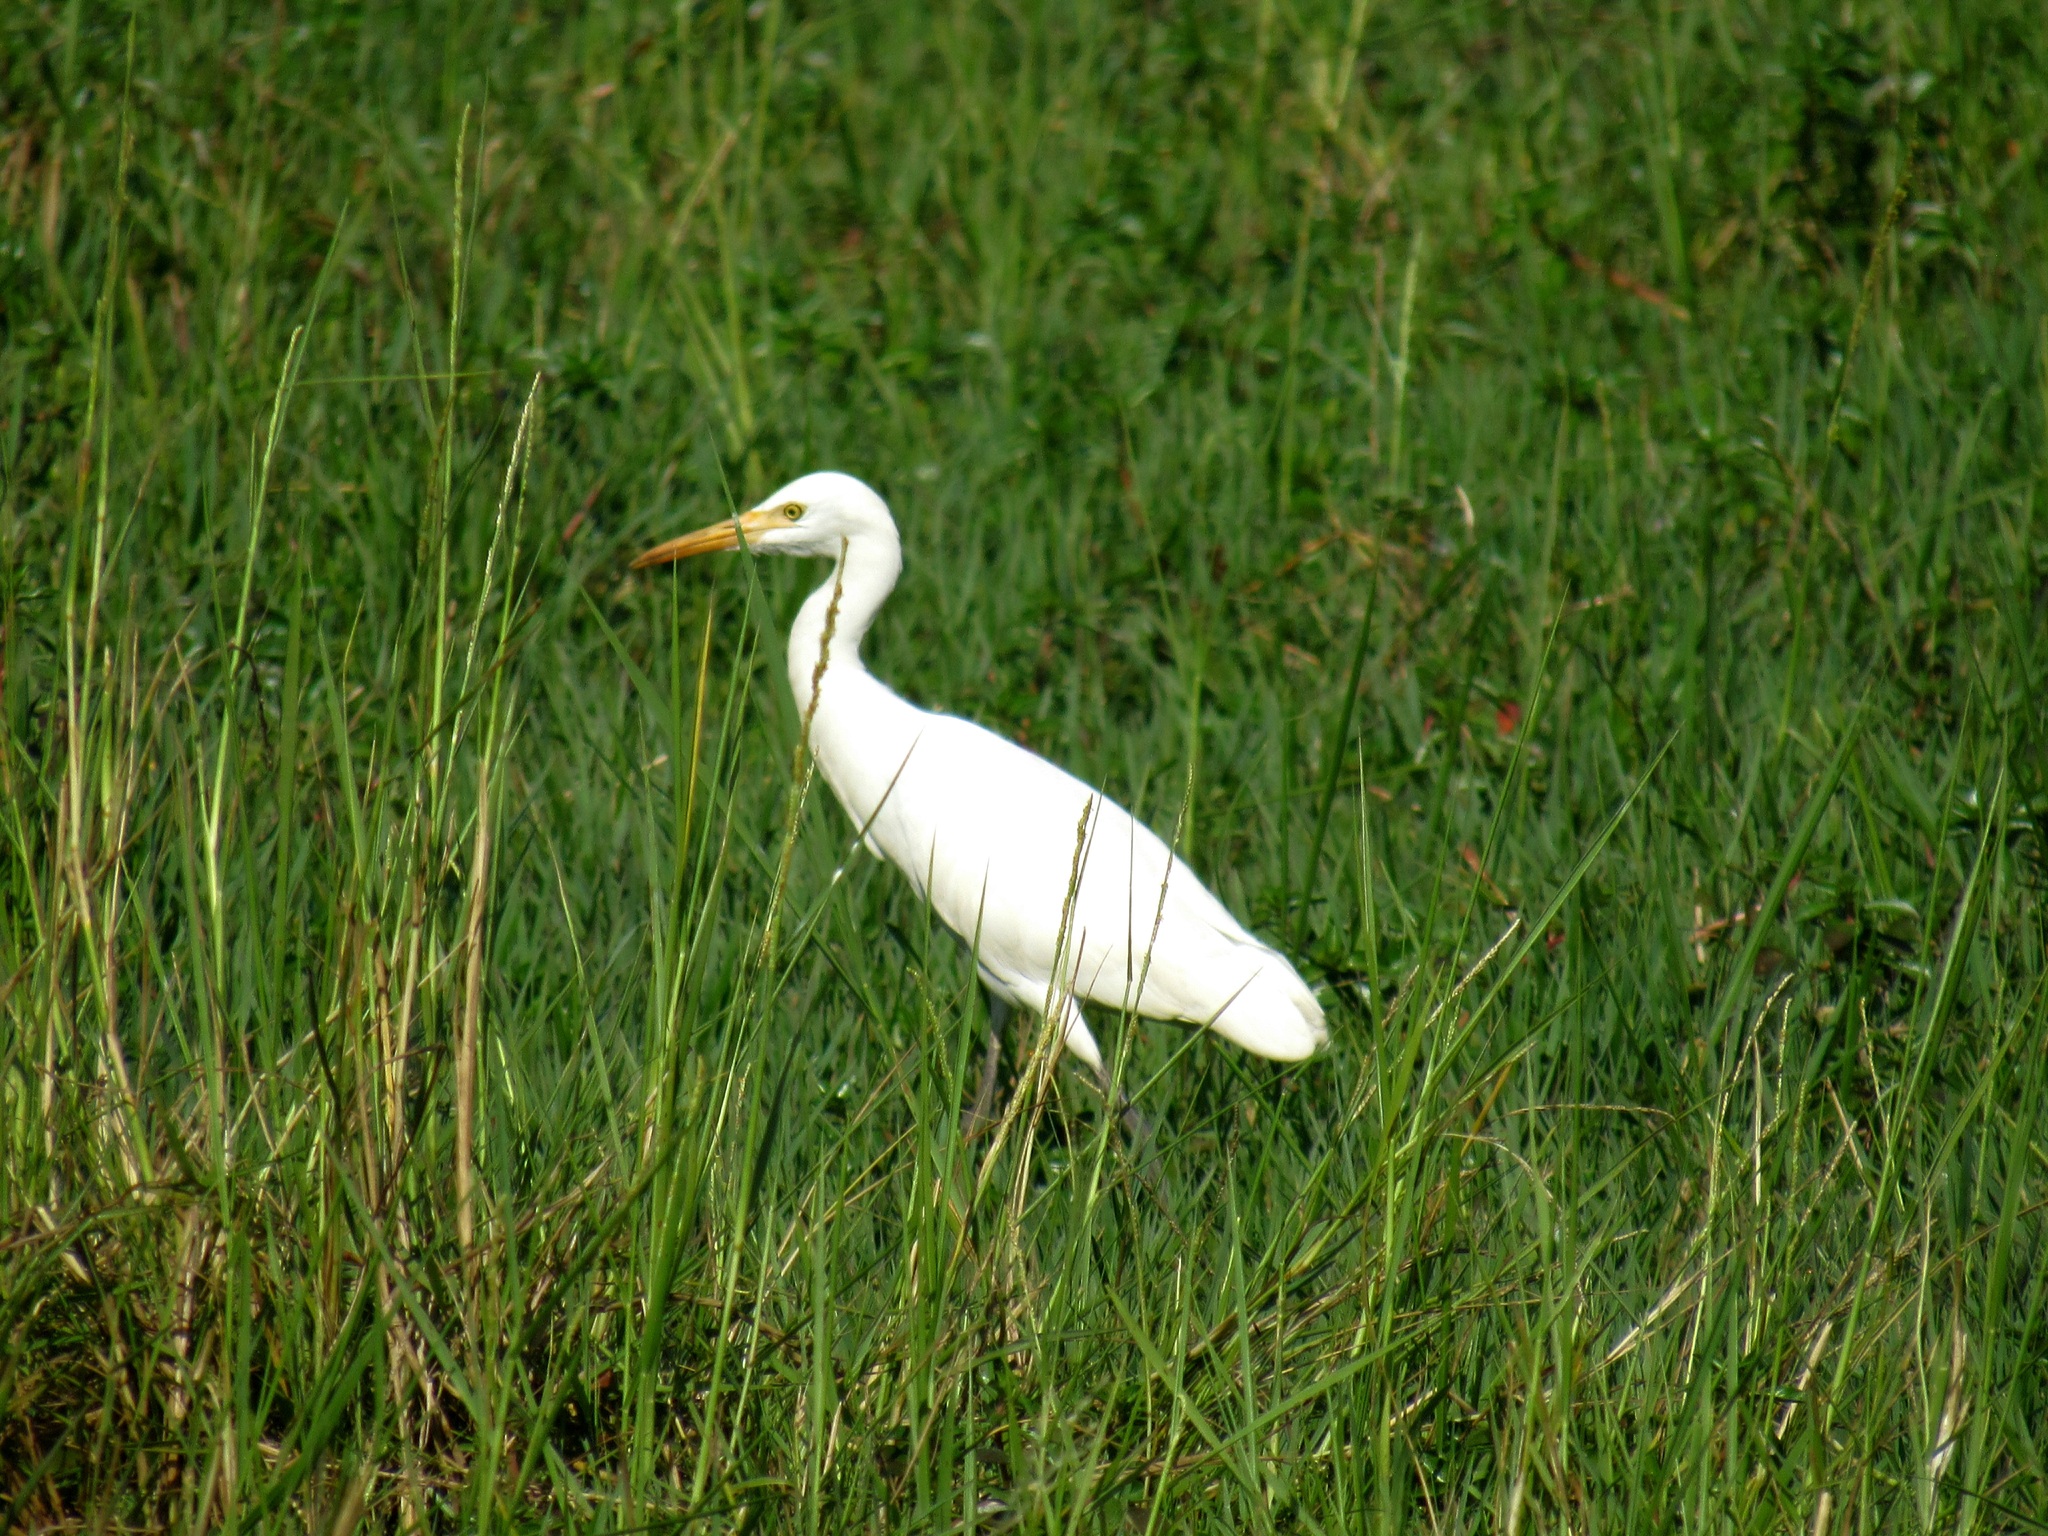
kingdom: Animalia
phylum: Chordata
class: Aves
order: Pelecaniformes
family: Ardeidae
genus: Bubulcus
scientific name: Bubulcus coromandus
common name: Eastern cattle egret
